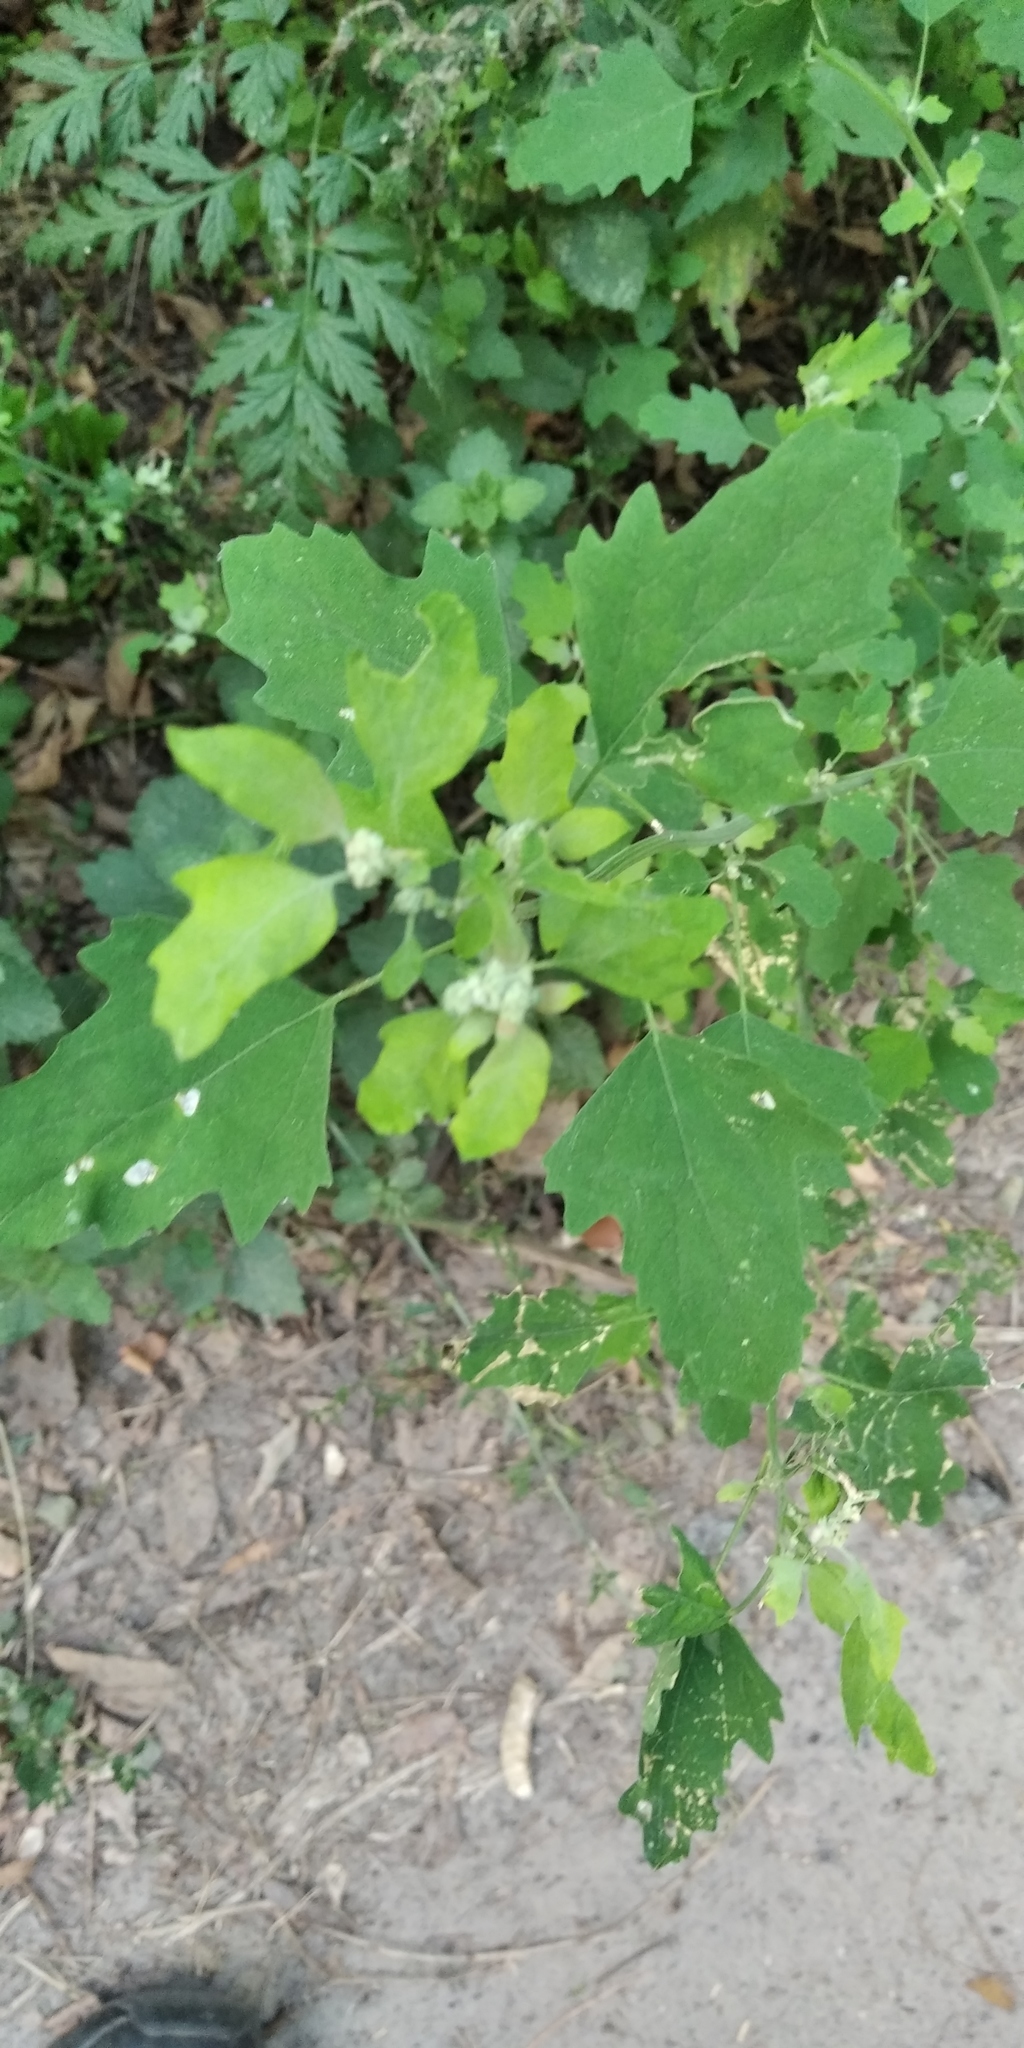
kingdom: Plantae
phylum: Tracheophyta
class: Magnoliopsida
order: Caryophyllales
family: Amaranthaceae
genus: Chenopodium
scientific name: Chenopodium ucrainicum
